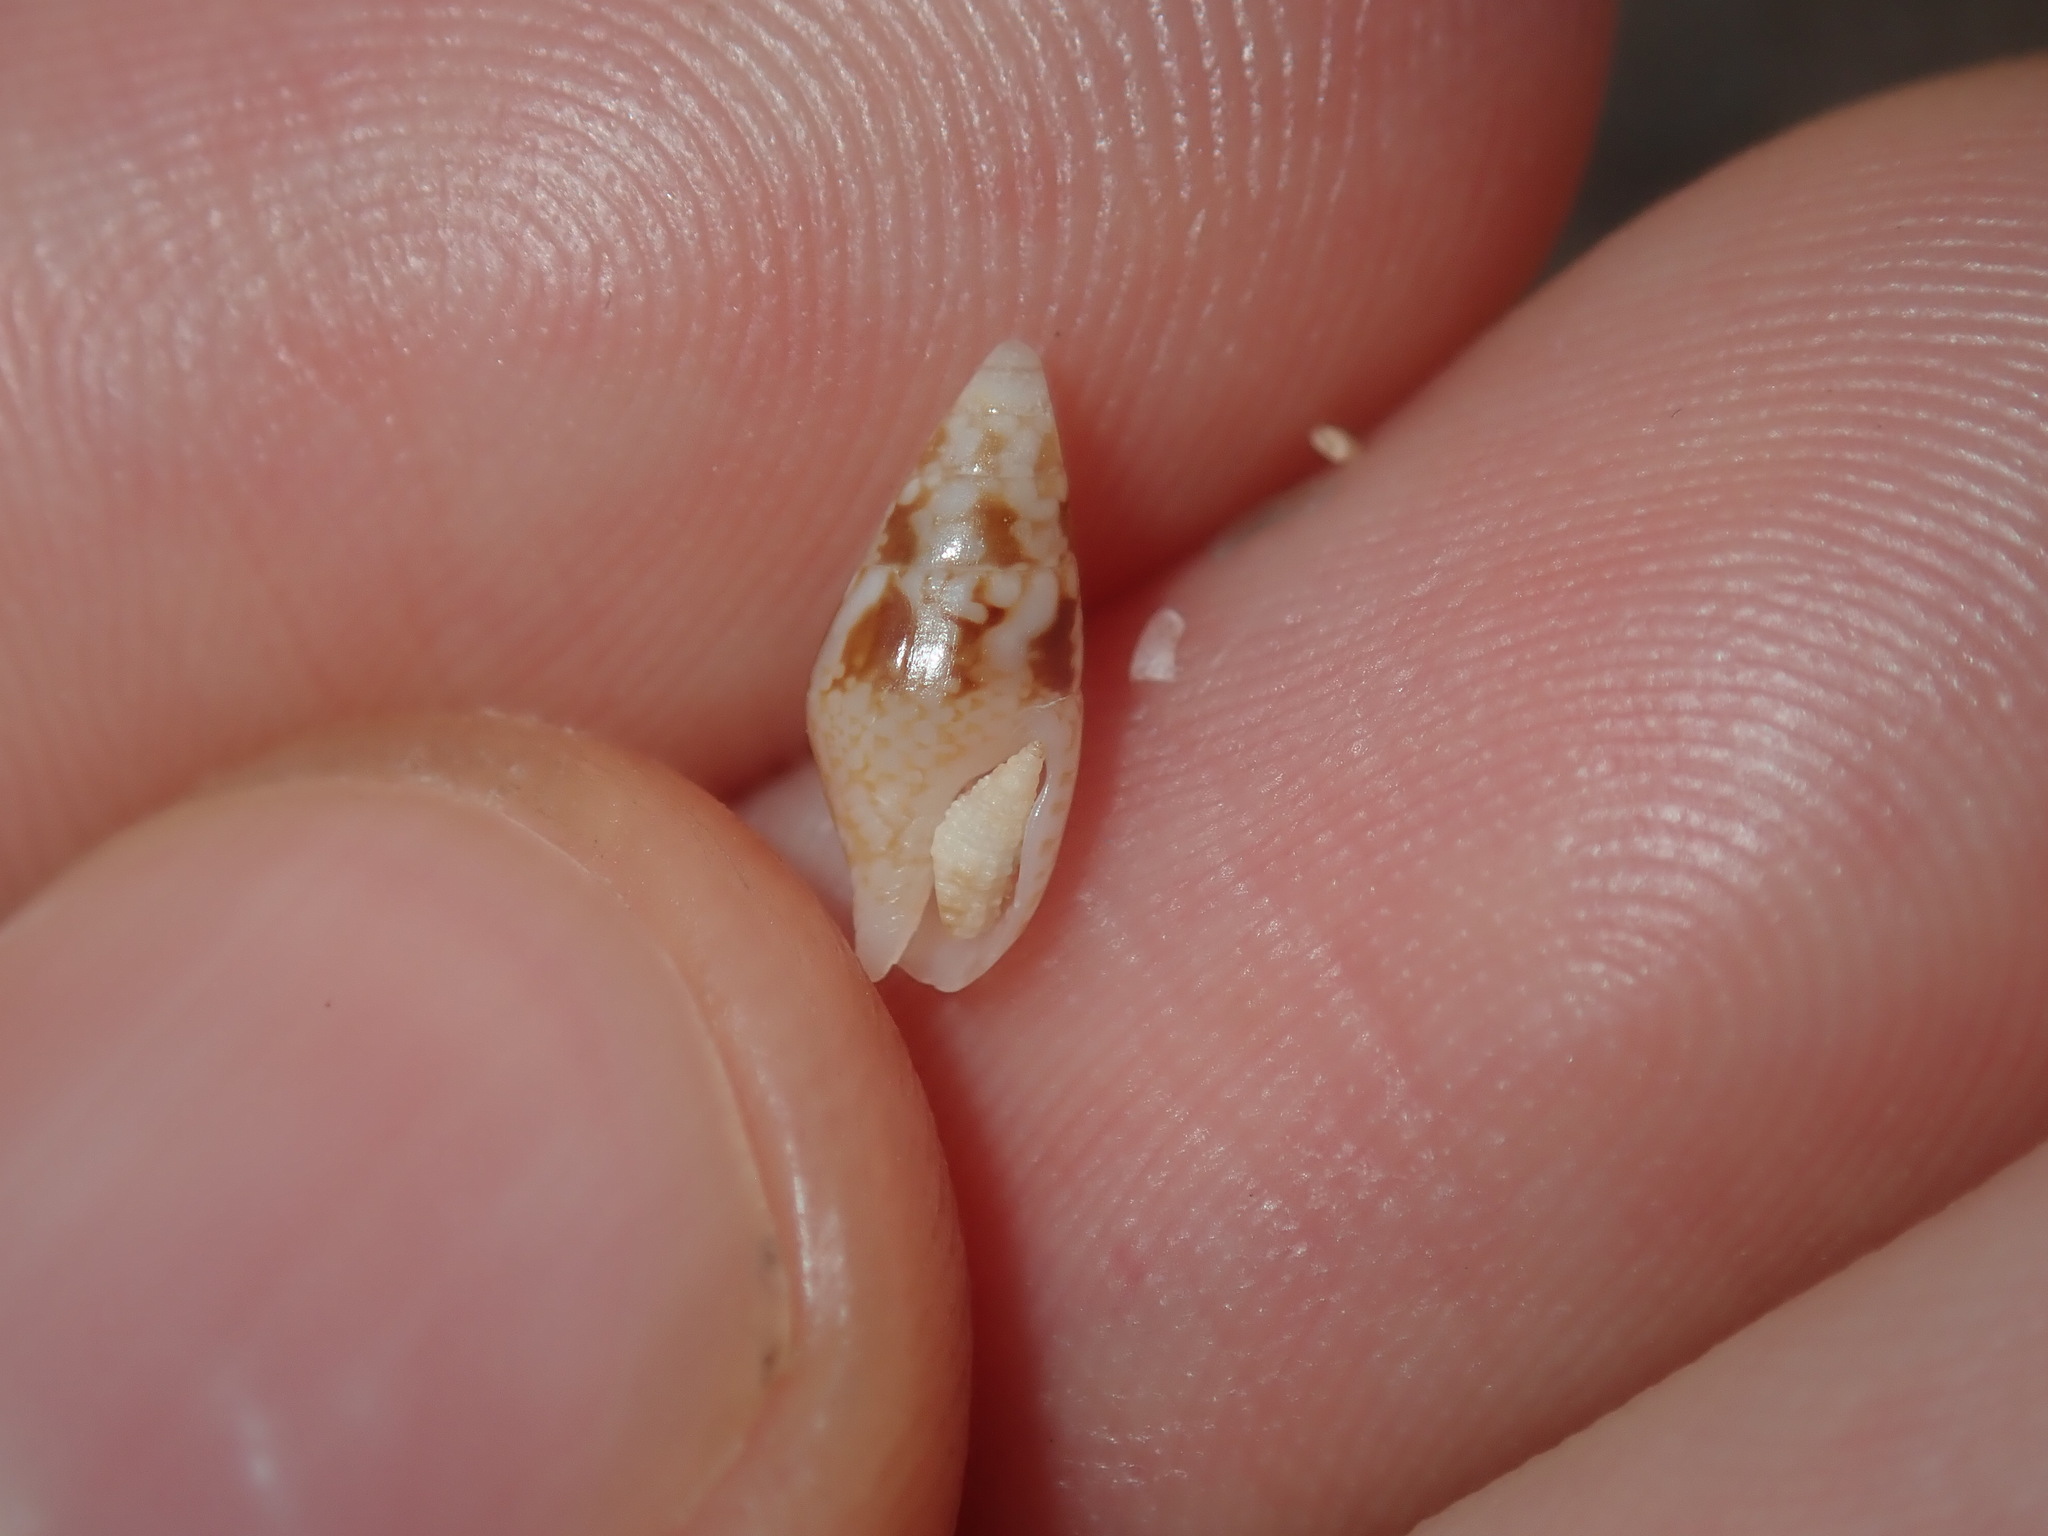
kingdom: Animalia
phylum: Mollusca
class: Gastropoda
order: Neogastropoda
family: Columbellidae
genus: Mitrella
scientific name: Mitrella tayloriana
